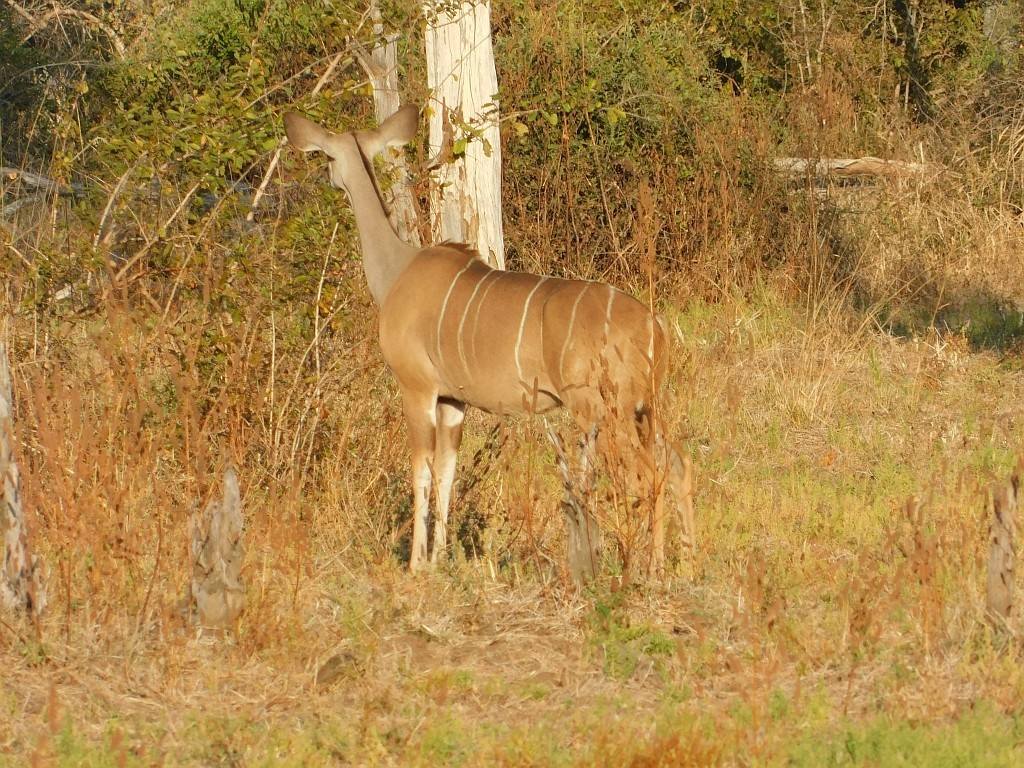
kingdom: Animalia
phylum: Chordata
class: Mammalia
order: Artiodactyla
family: Bovidae
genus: Tragelaphus
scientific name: Tragelaphus strepsiceros
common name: Greater kudu
